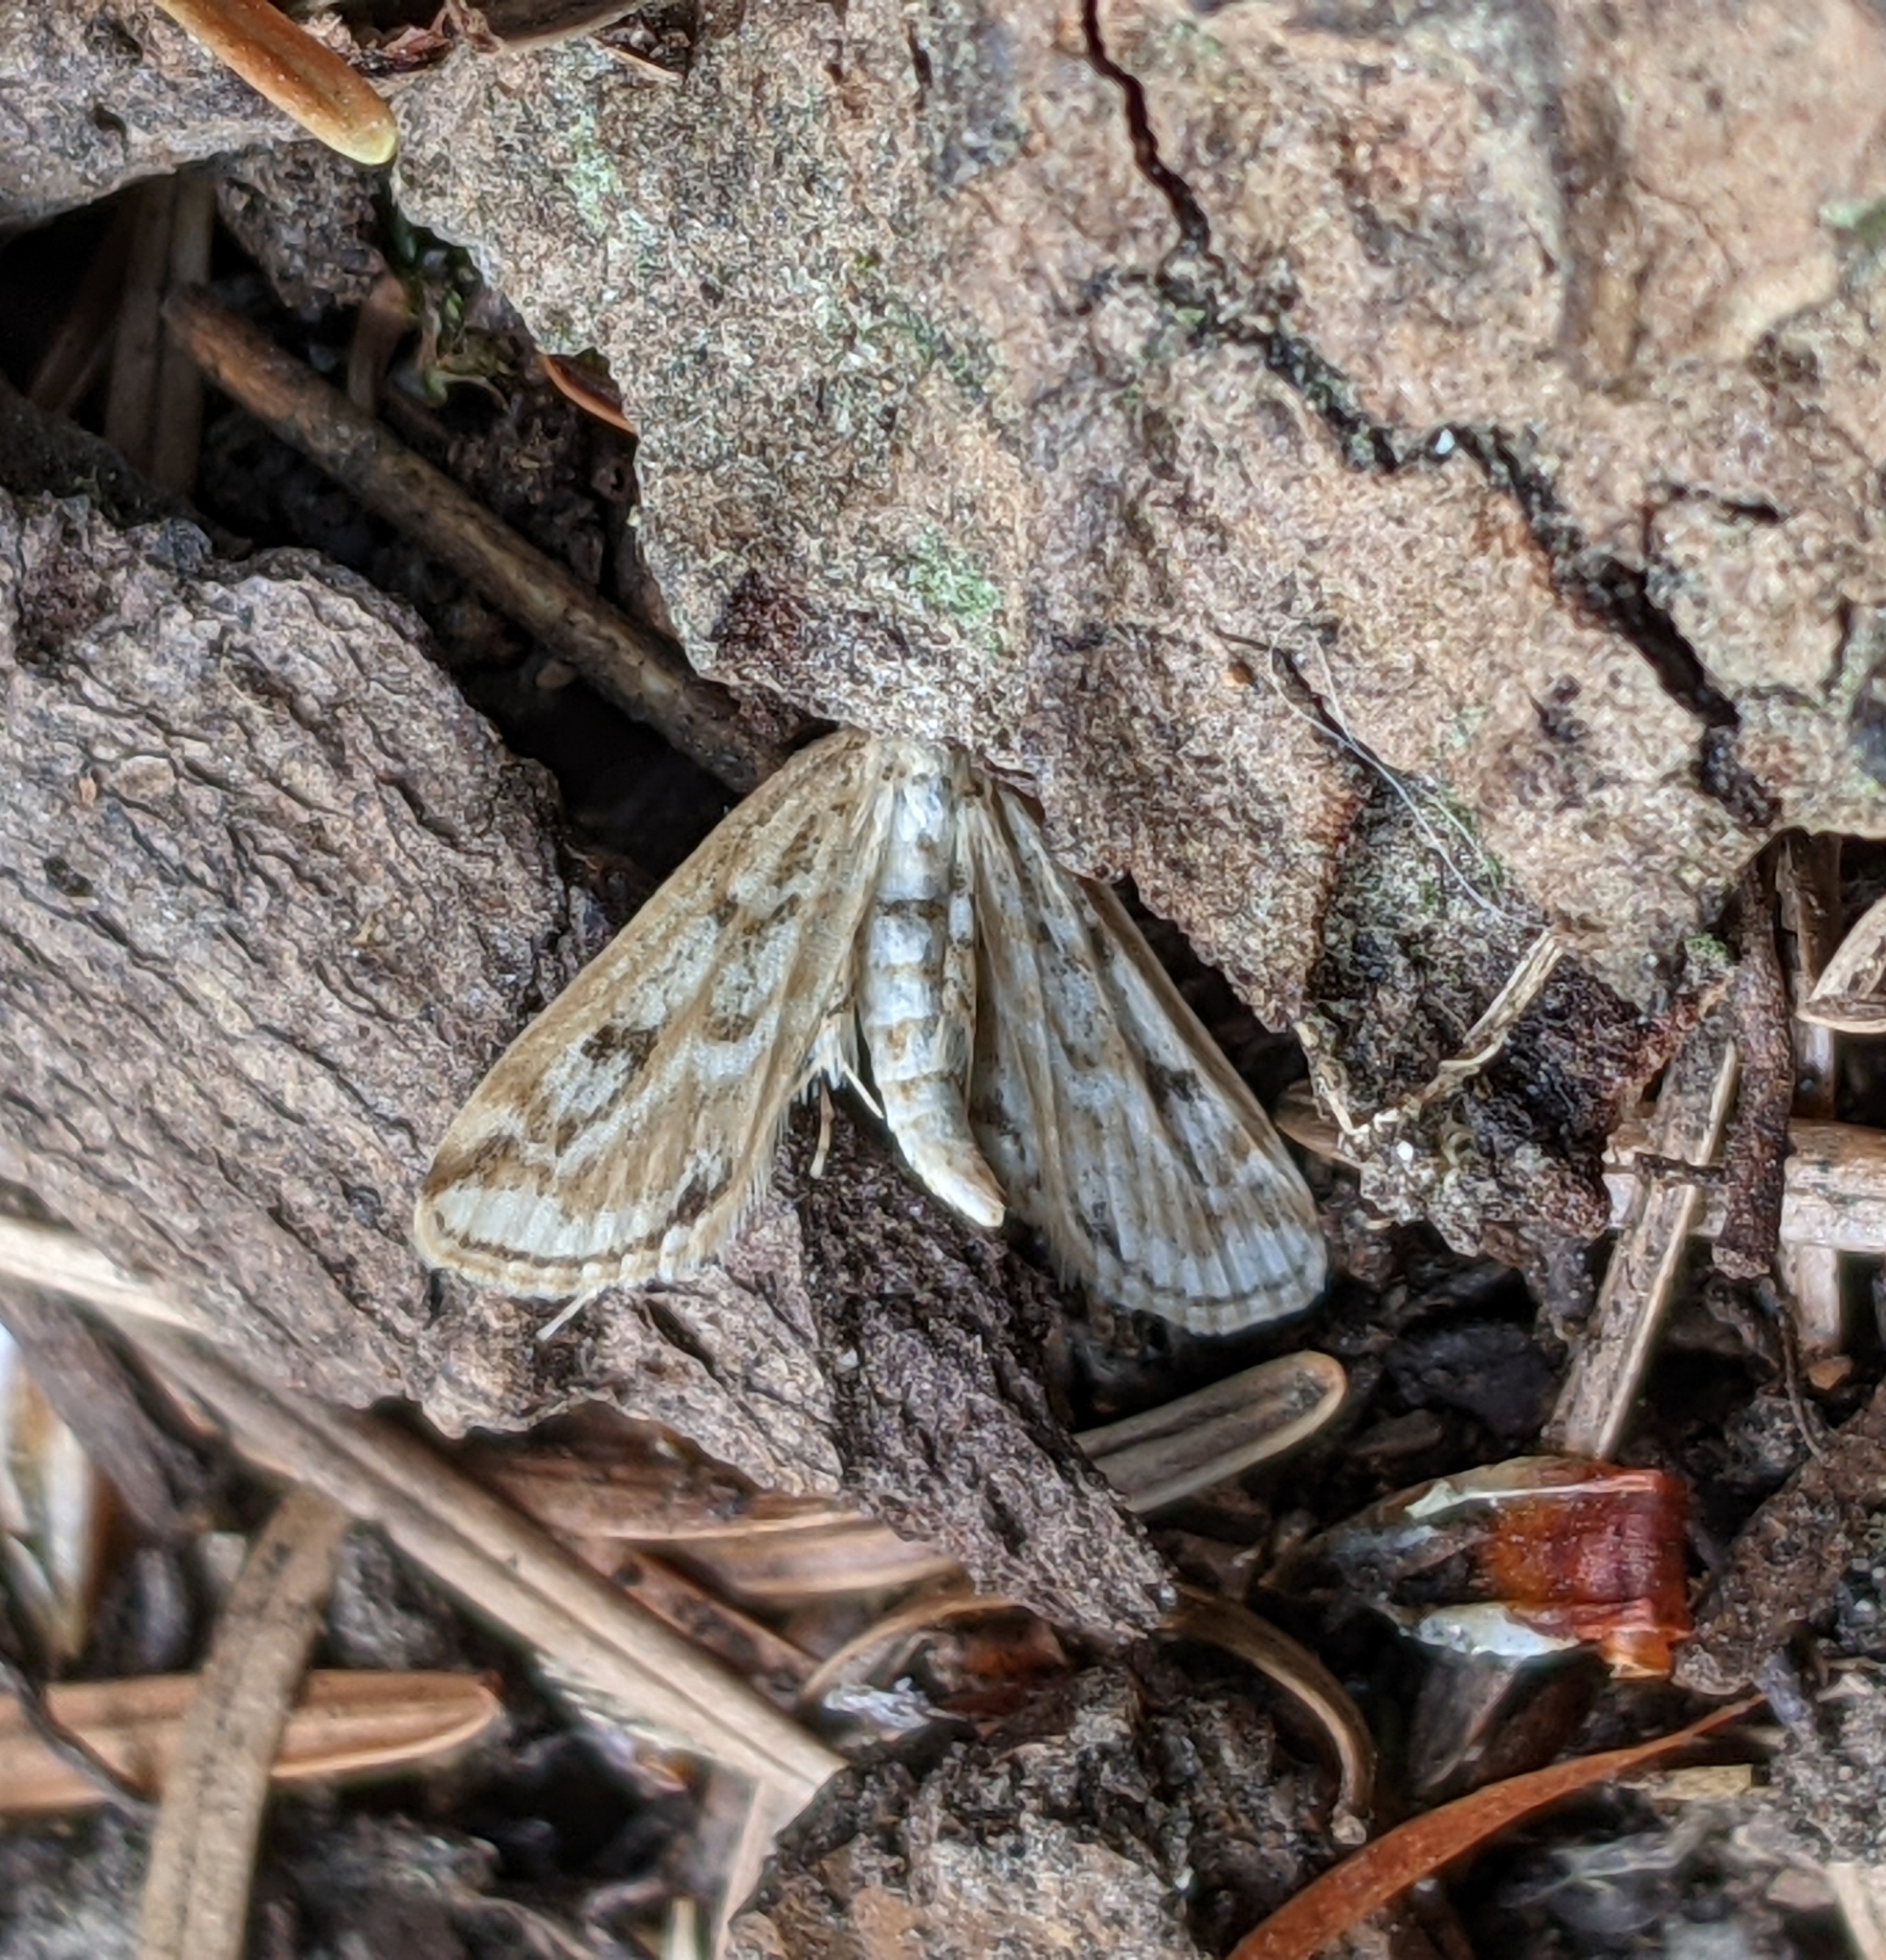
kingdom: Animalia
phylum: Arthropoda
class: Insecta
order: Lepidoptera
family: Crambidae
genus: Parapoynx
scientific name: Parapoynx allionealis
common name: Bladderwort casemaker
